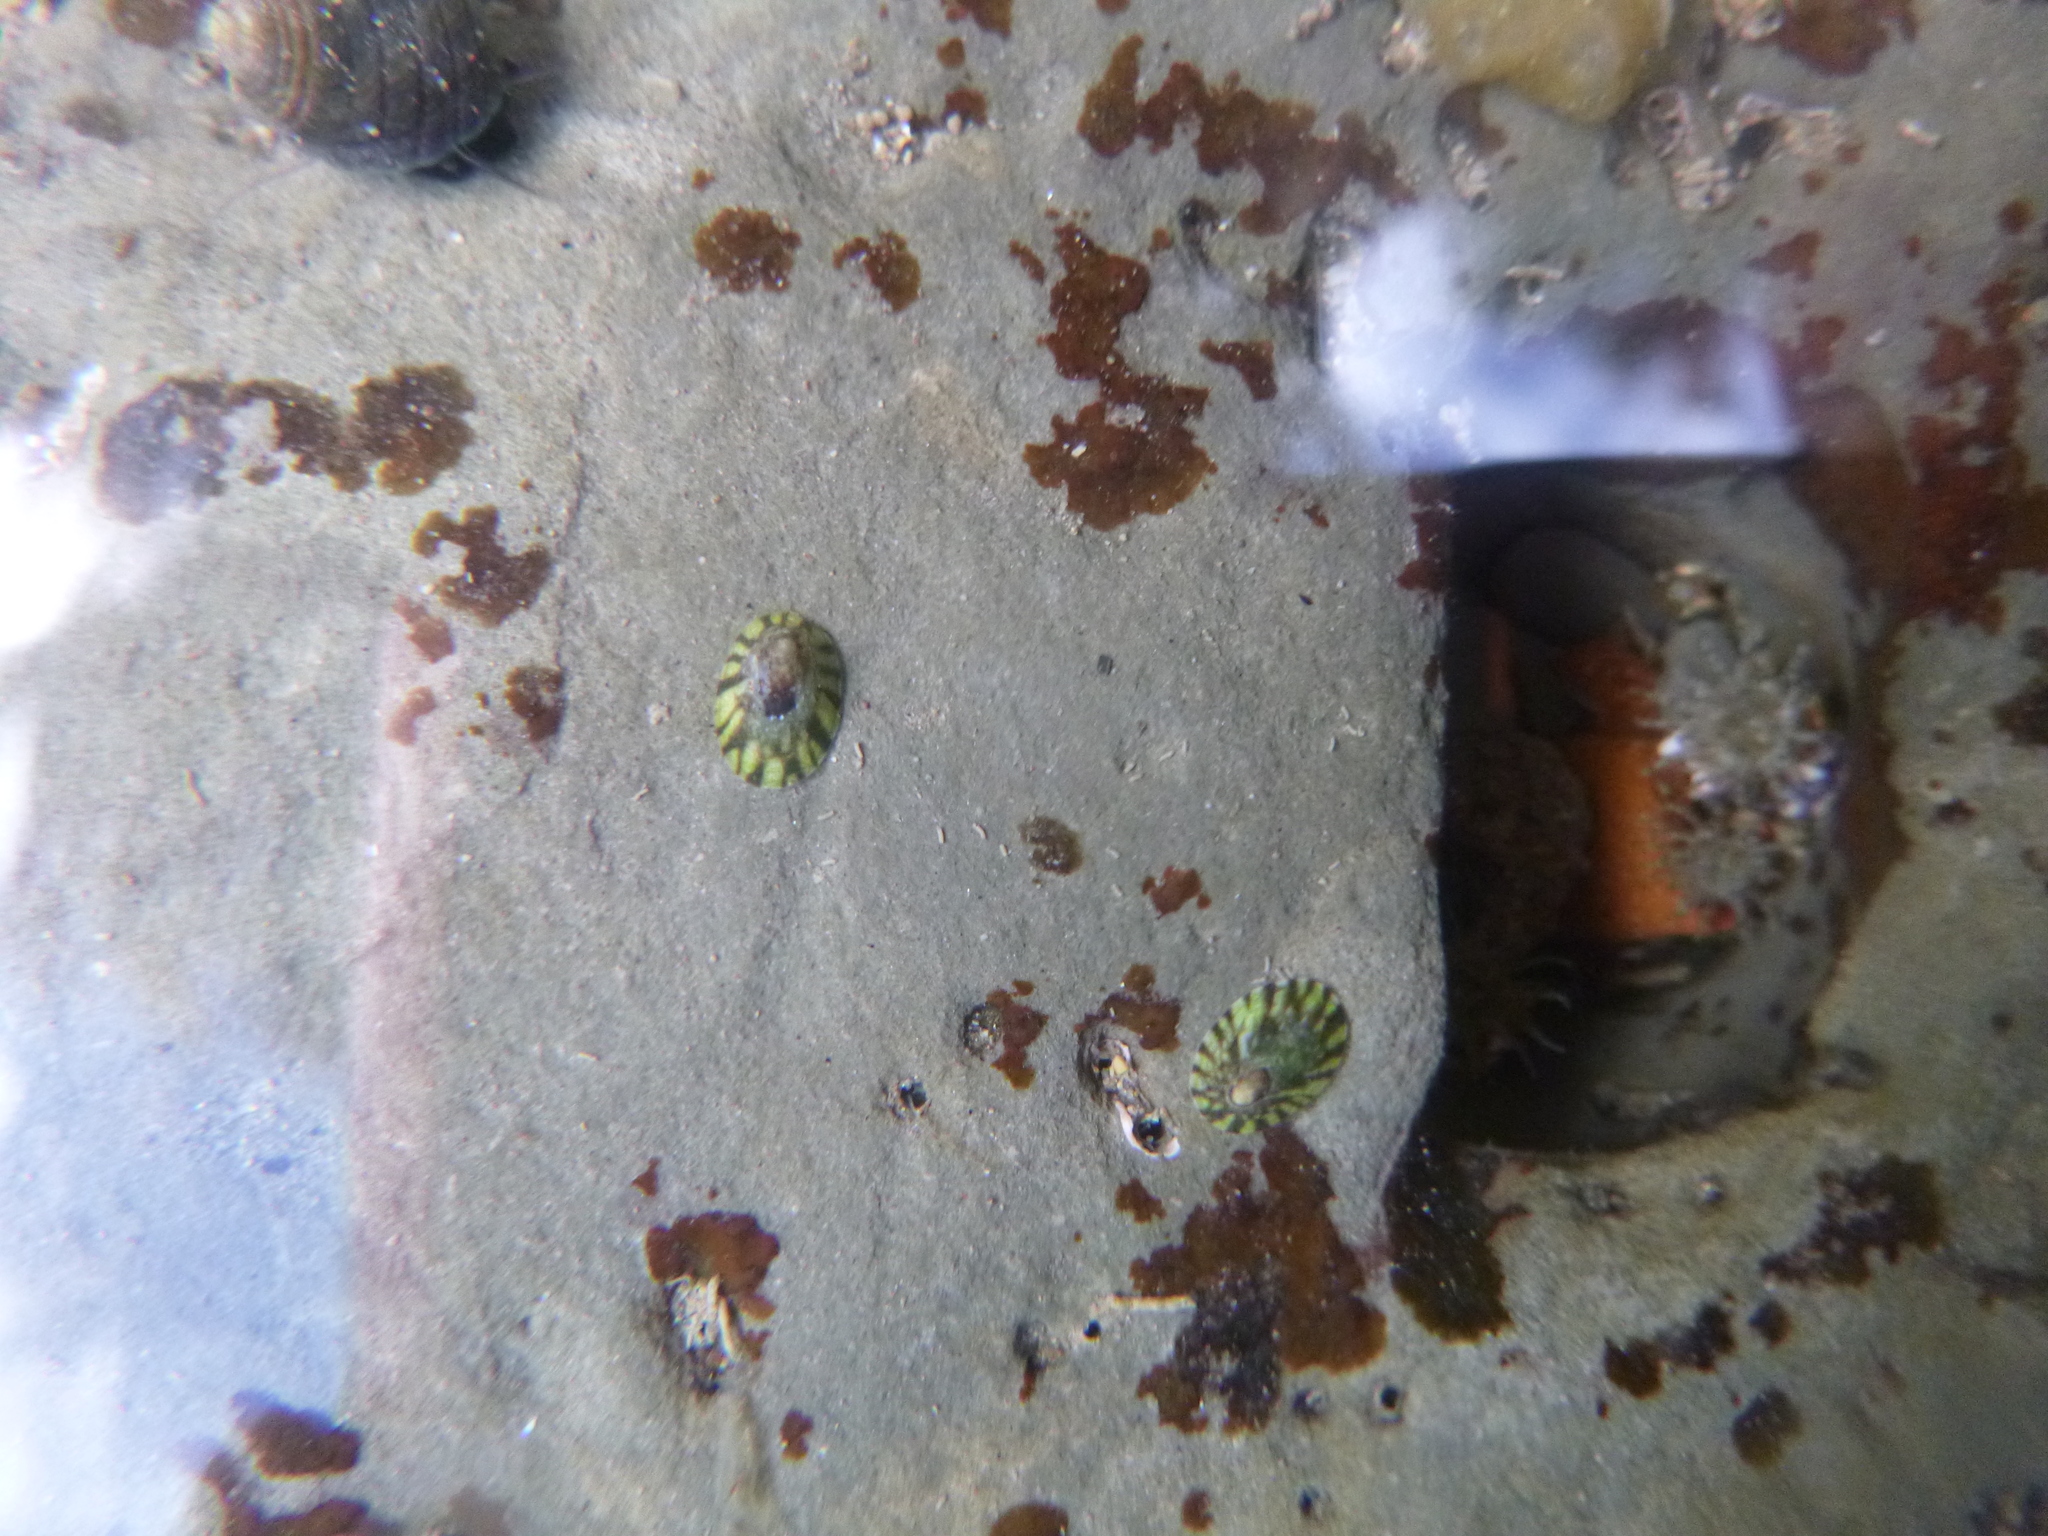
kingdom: Animalia
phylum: Mollusca
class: Gastropoda
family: Lottiidae
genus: Notoacmea
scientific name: Notoacmea parviconoidea
